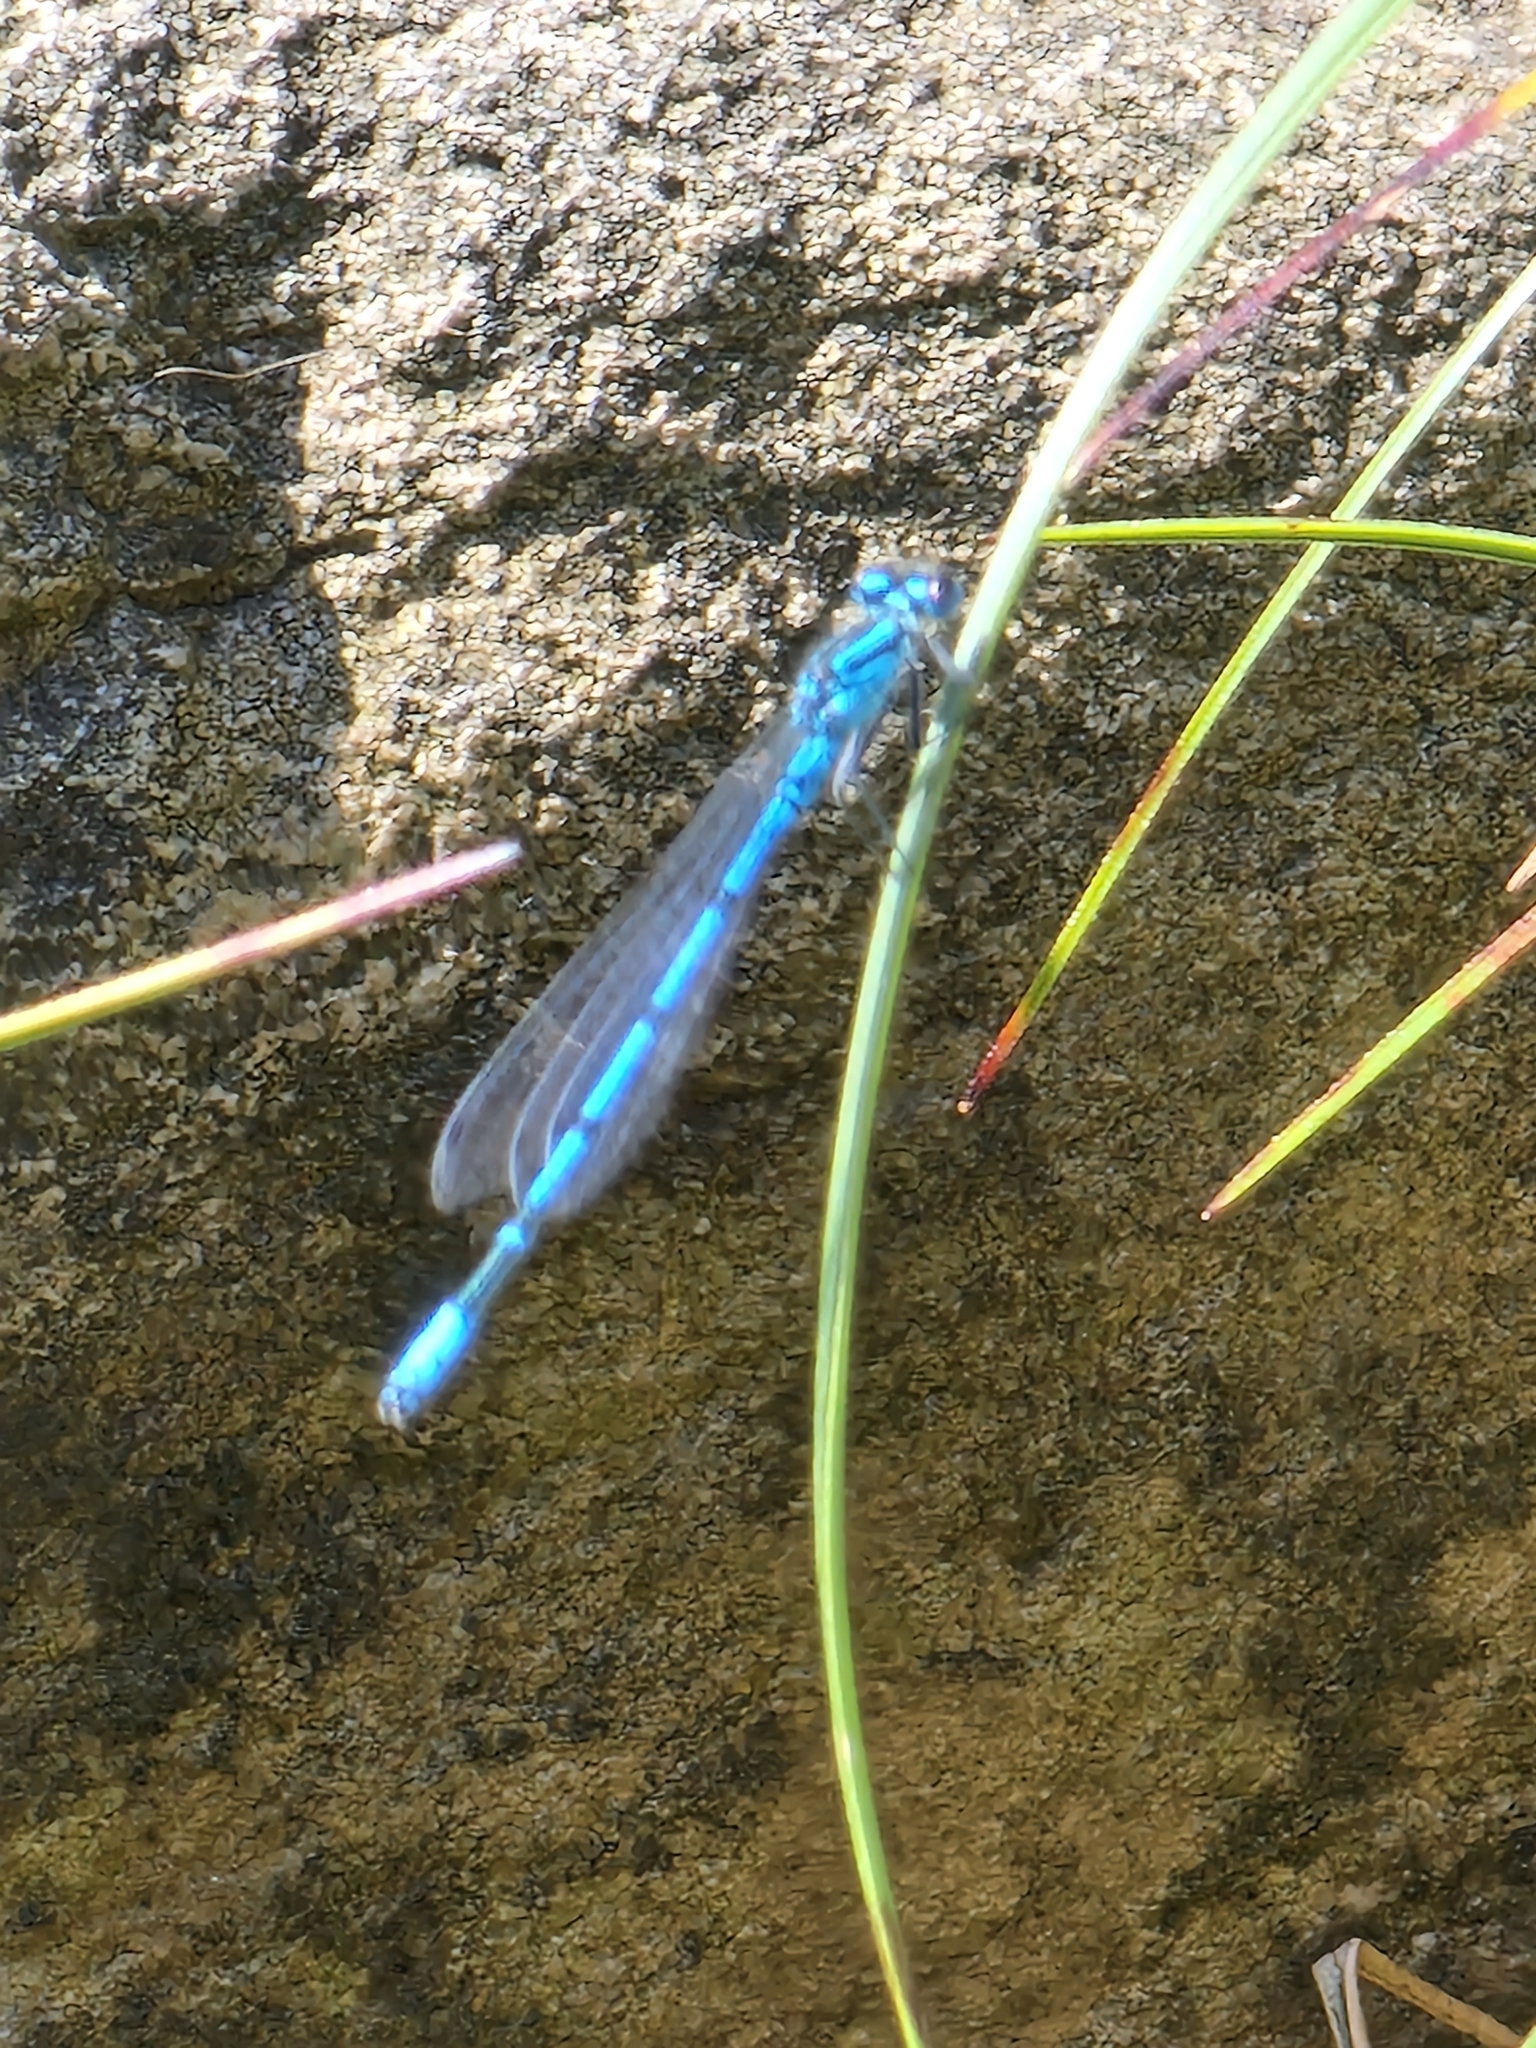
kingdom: Animalia
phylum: Arthropoda
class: Insecta
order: Odonata
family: Coenagrionidae
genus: Coenagrion
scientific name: Coenagrion puella
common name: Azure damselfly
